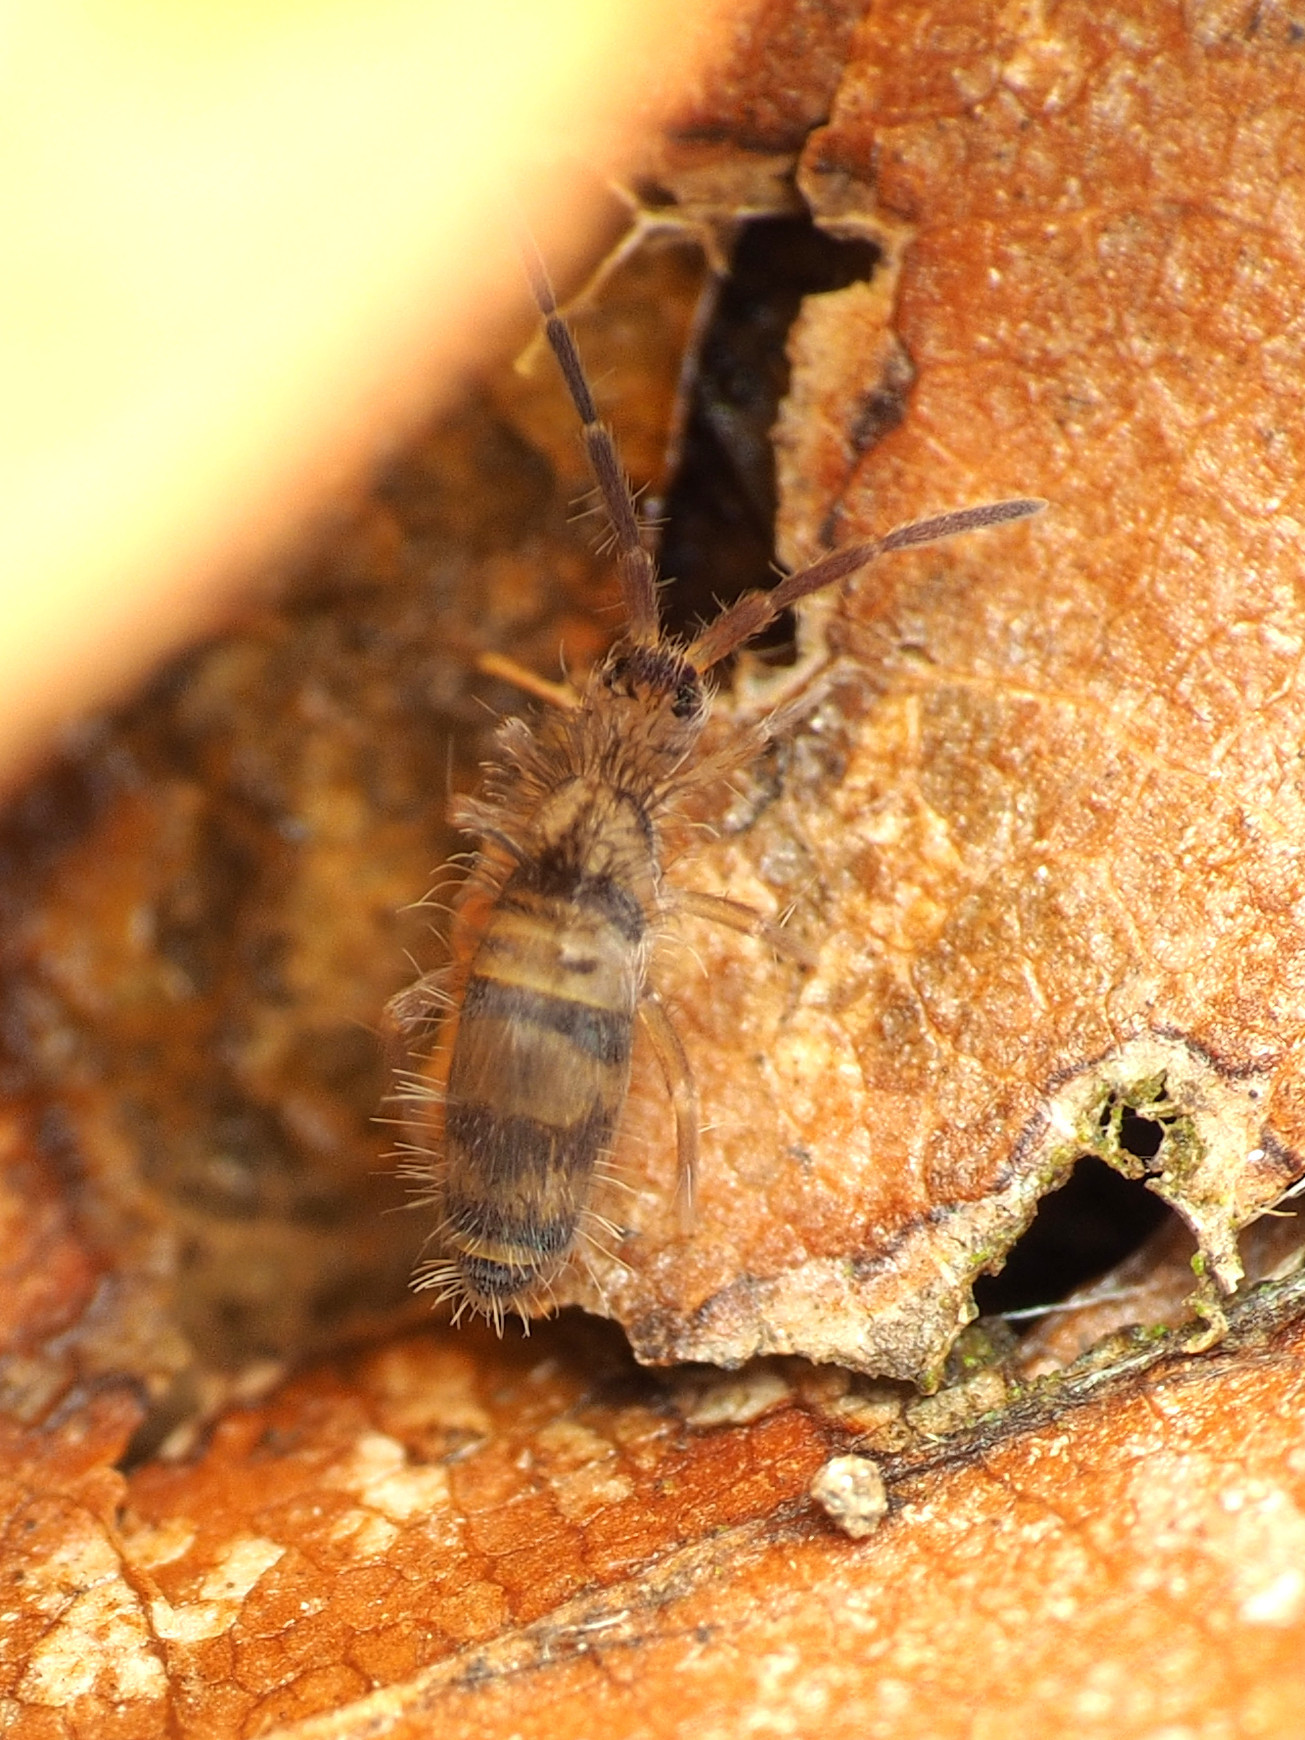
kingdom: Animalia
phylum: Arthropoda
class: Collembola
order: Entomobryomorpha
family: Entomobryidae
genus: Homidia
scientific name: Homidia sauteri
